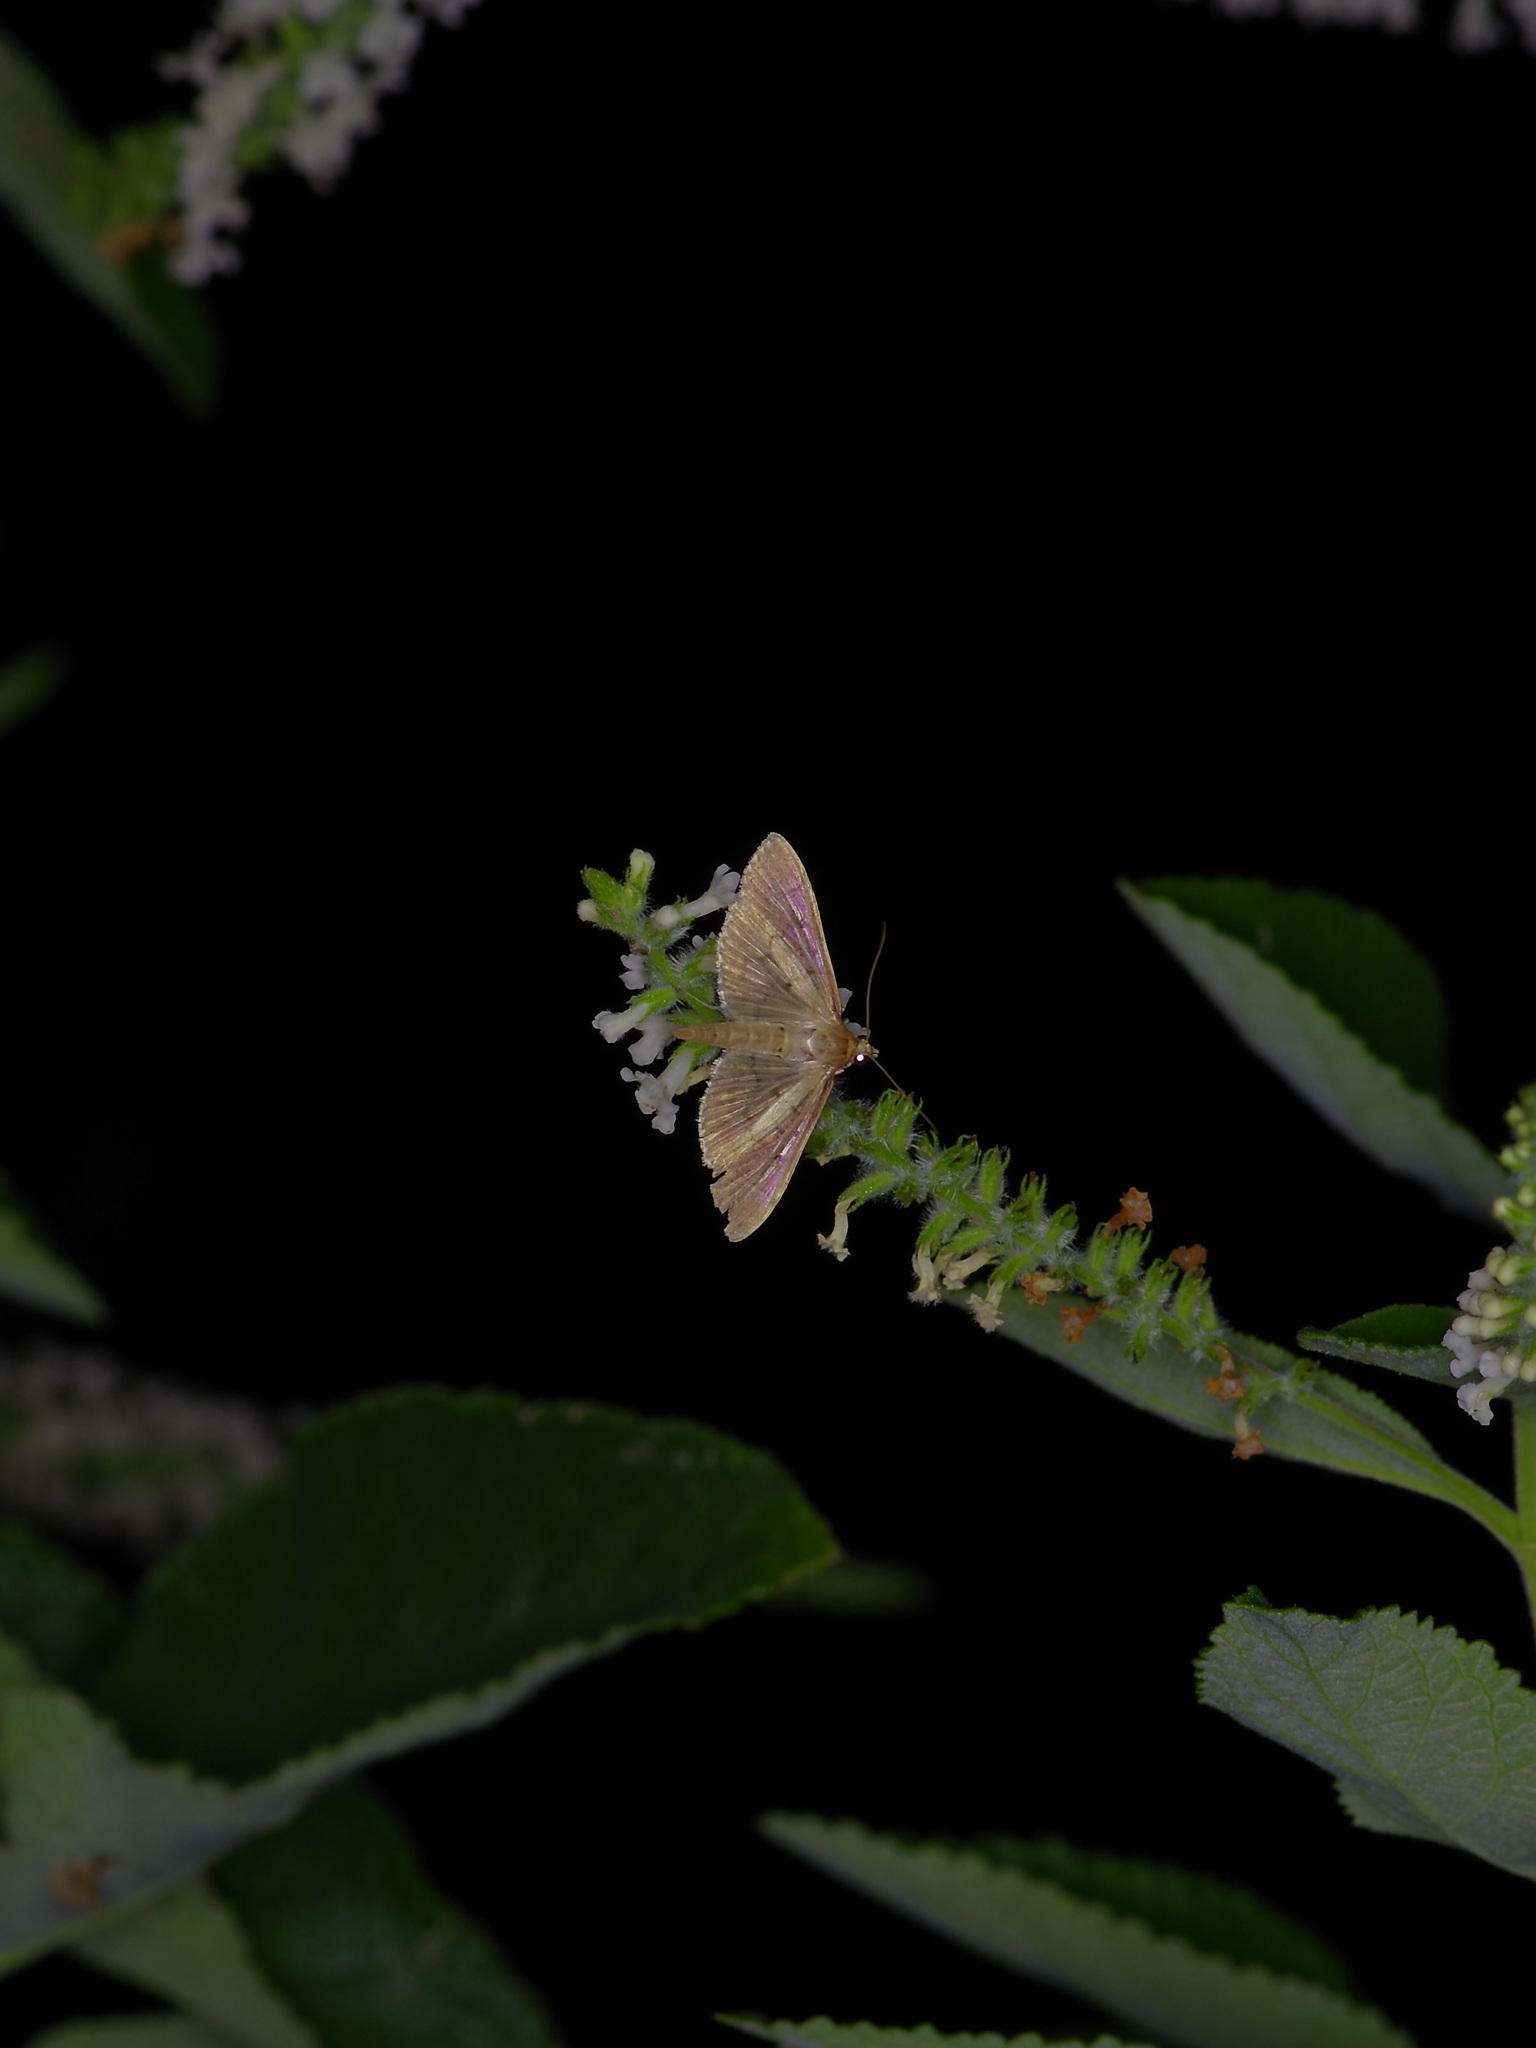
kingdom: Animalia
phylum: Arthropoda
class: Insecta
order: Lepidoptera
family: Crambidae
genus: Herpetogramma
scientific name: Herpetogramma bipunctalis
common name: Southern beet webworm
